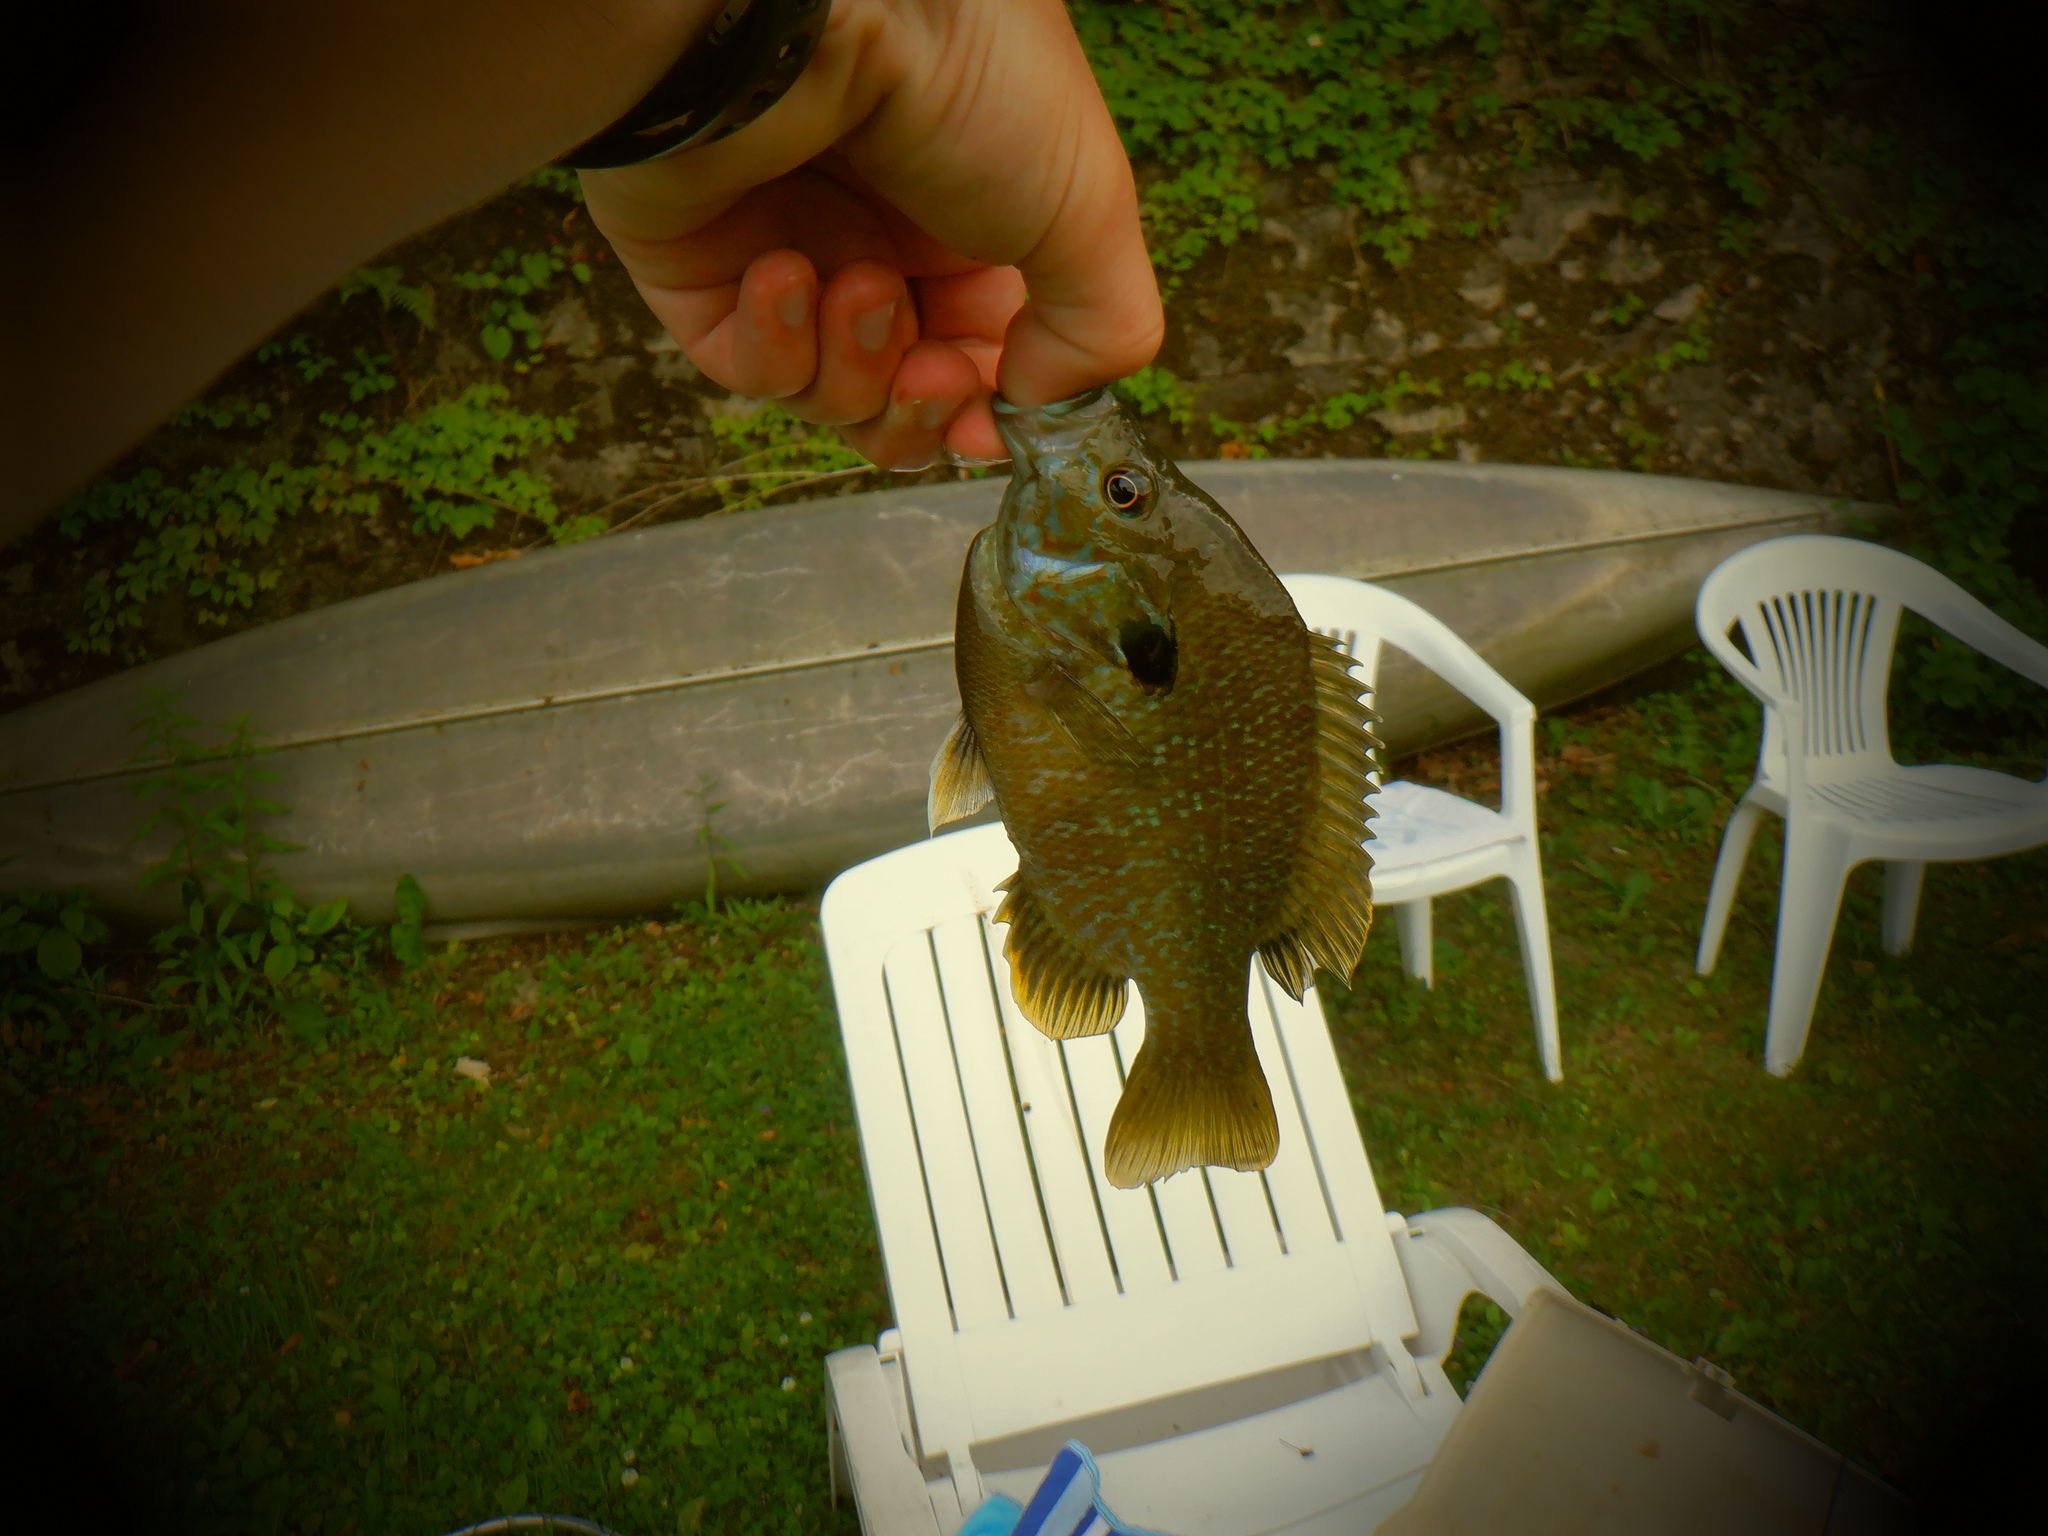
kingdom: Animalia
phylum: Chordata
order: Perciformes
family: Centrarchidae
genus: Lepomis
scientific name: Lepomis
